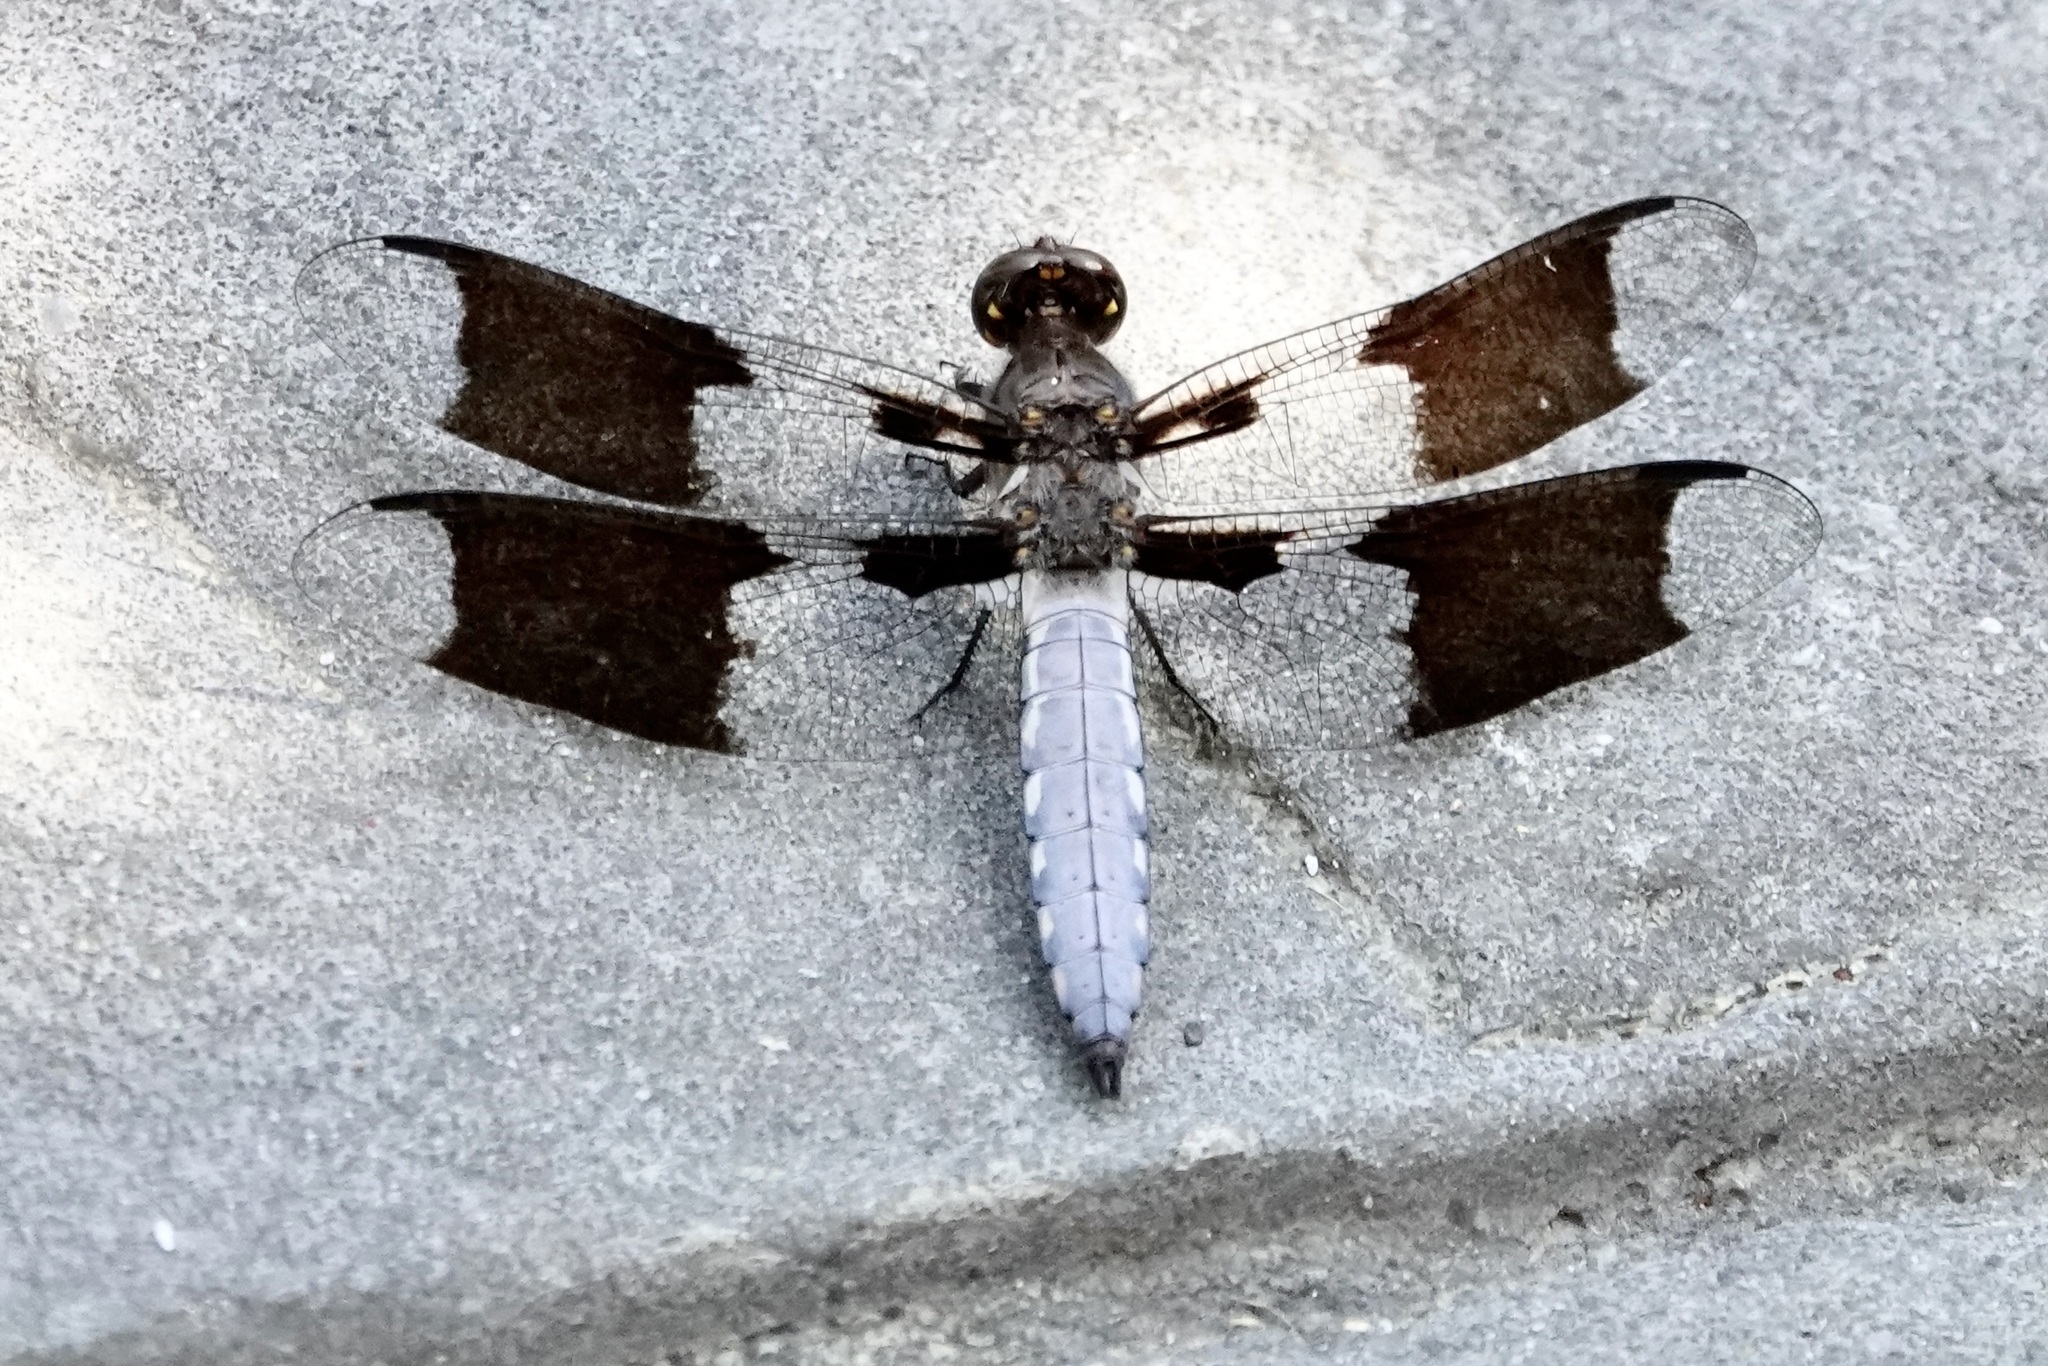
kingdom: Animalia
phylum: Arthropoda
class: Insecta
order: Odonata
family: Libellulidae
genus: Plathemis
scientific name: Plathemis lydia
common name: Common whitetail
